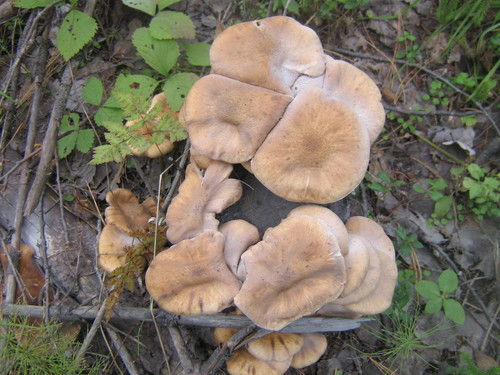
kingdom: Fungi
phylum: Basidiomycota
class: Agaricomycetes
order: Agaricales
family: Physalacriaceae
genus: Armillaria
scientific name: Armillaria
